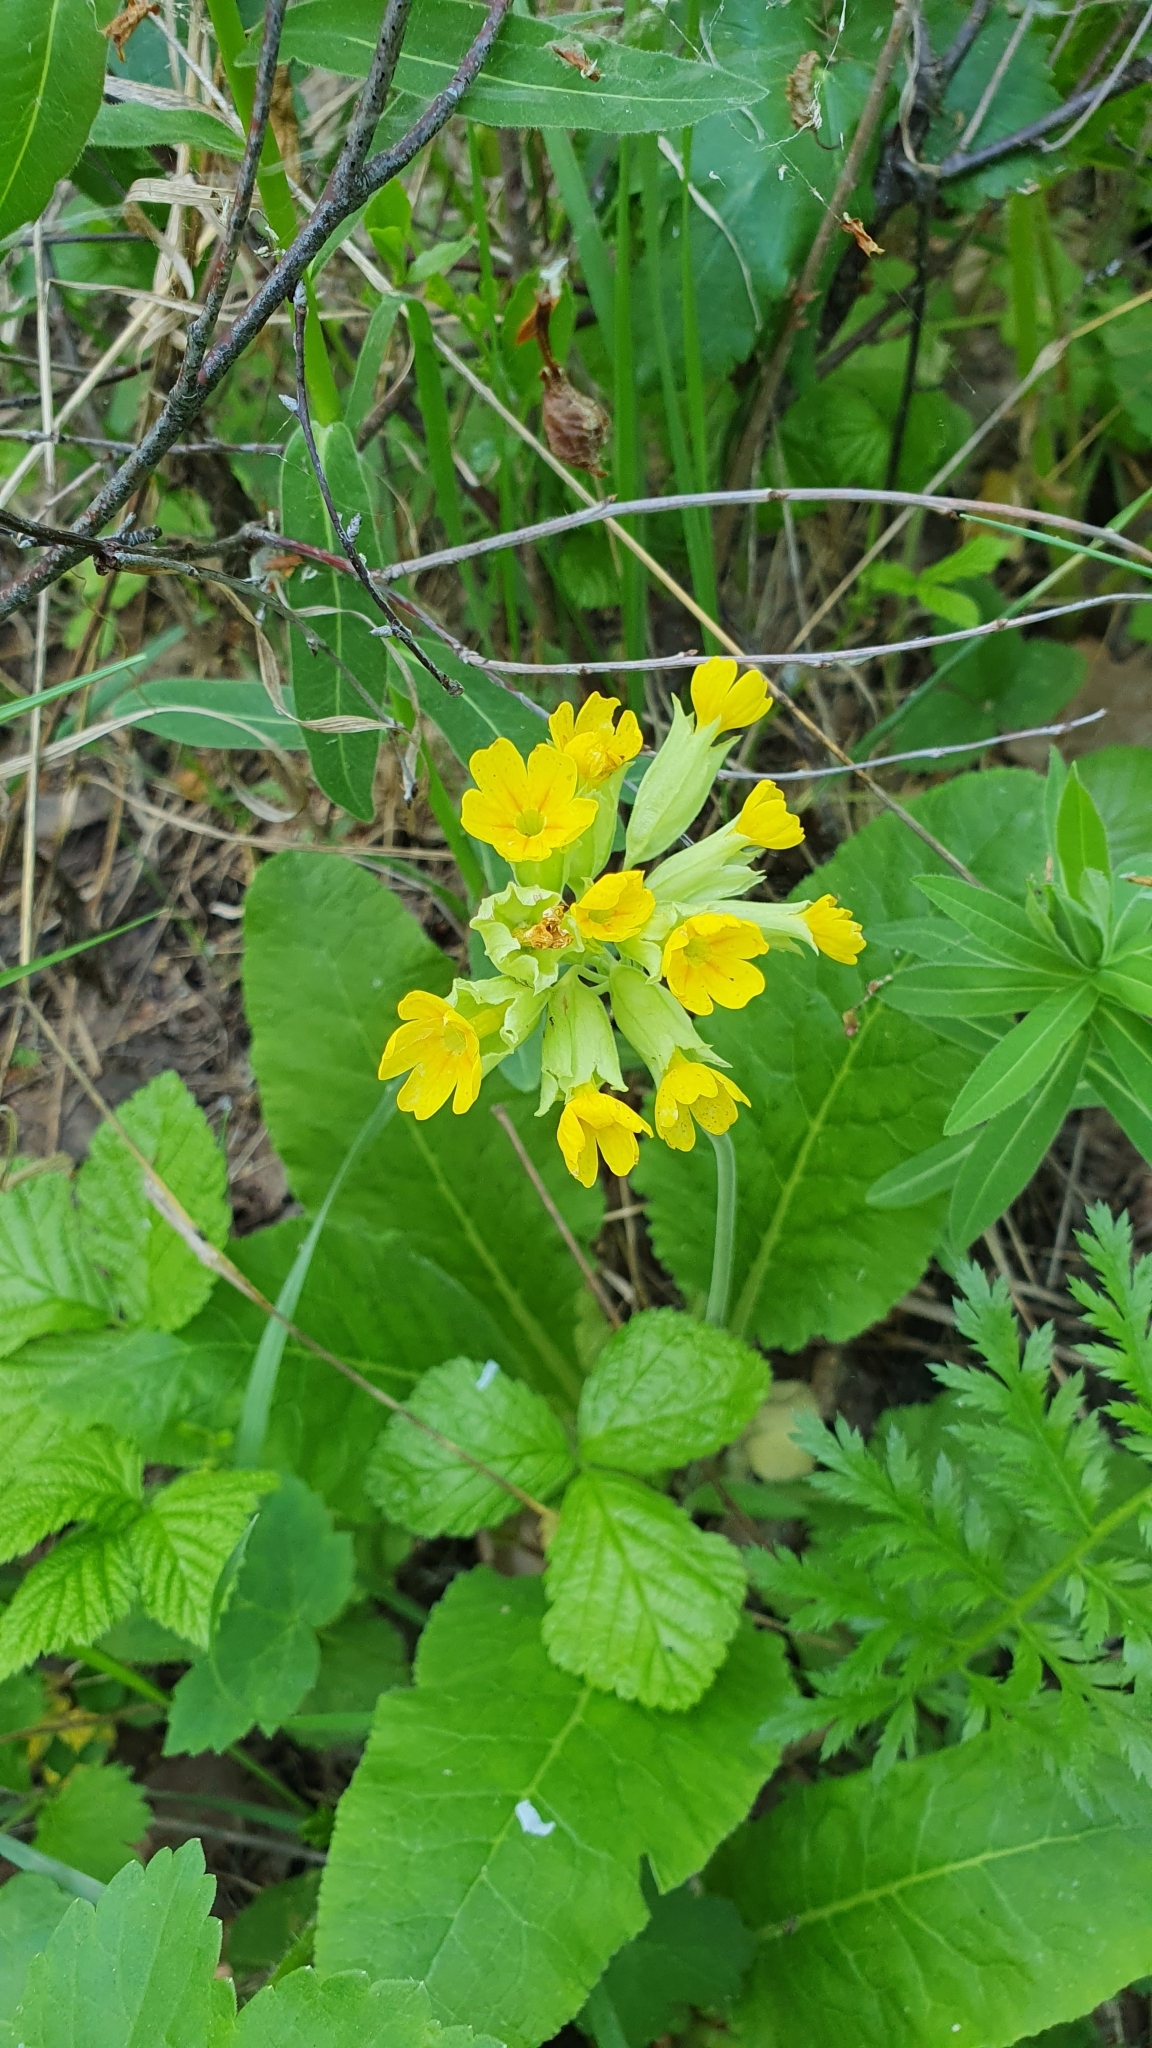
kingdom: Plantae
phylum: Tracheophyta
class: Magnoliopsida
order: Ericales
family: Primulaceae
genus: Primula
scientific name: Primula veris
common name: Cowslip
